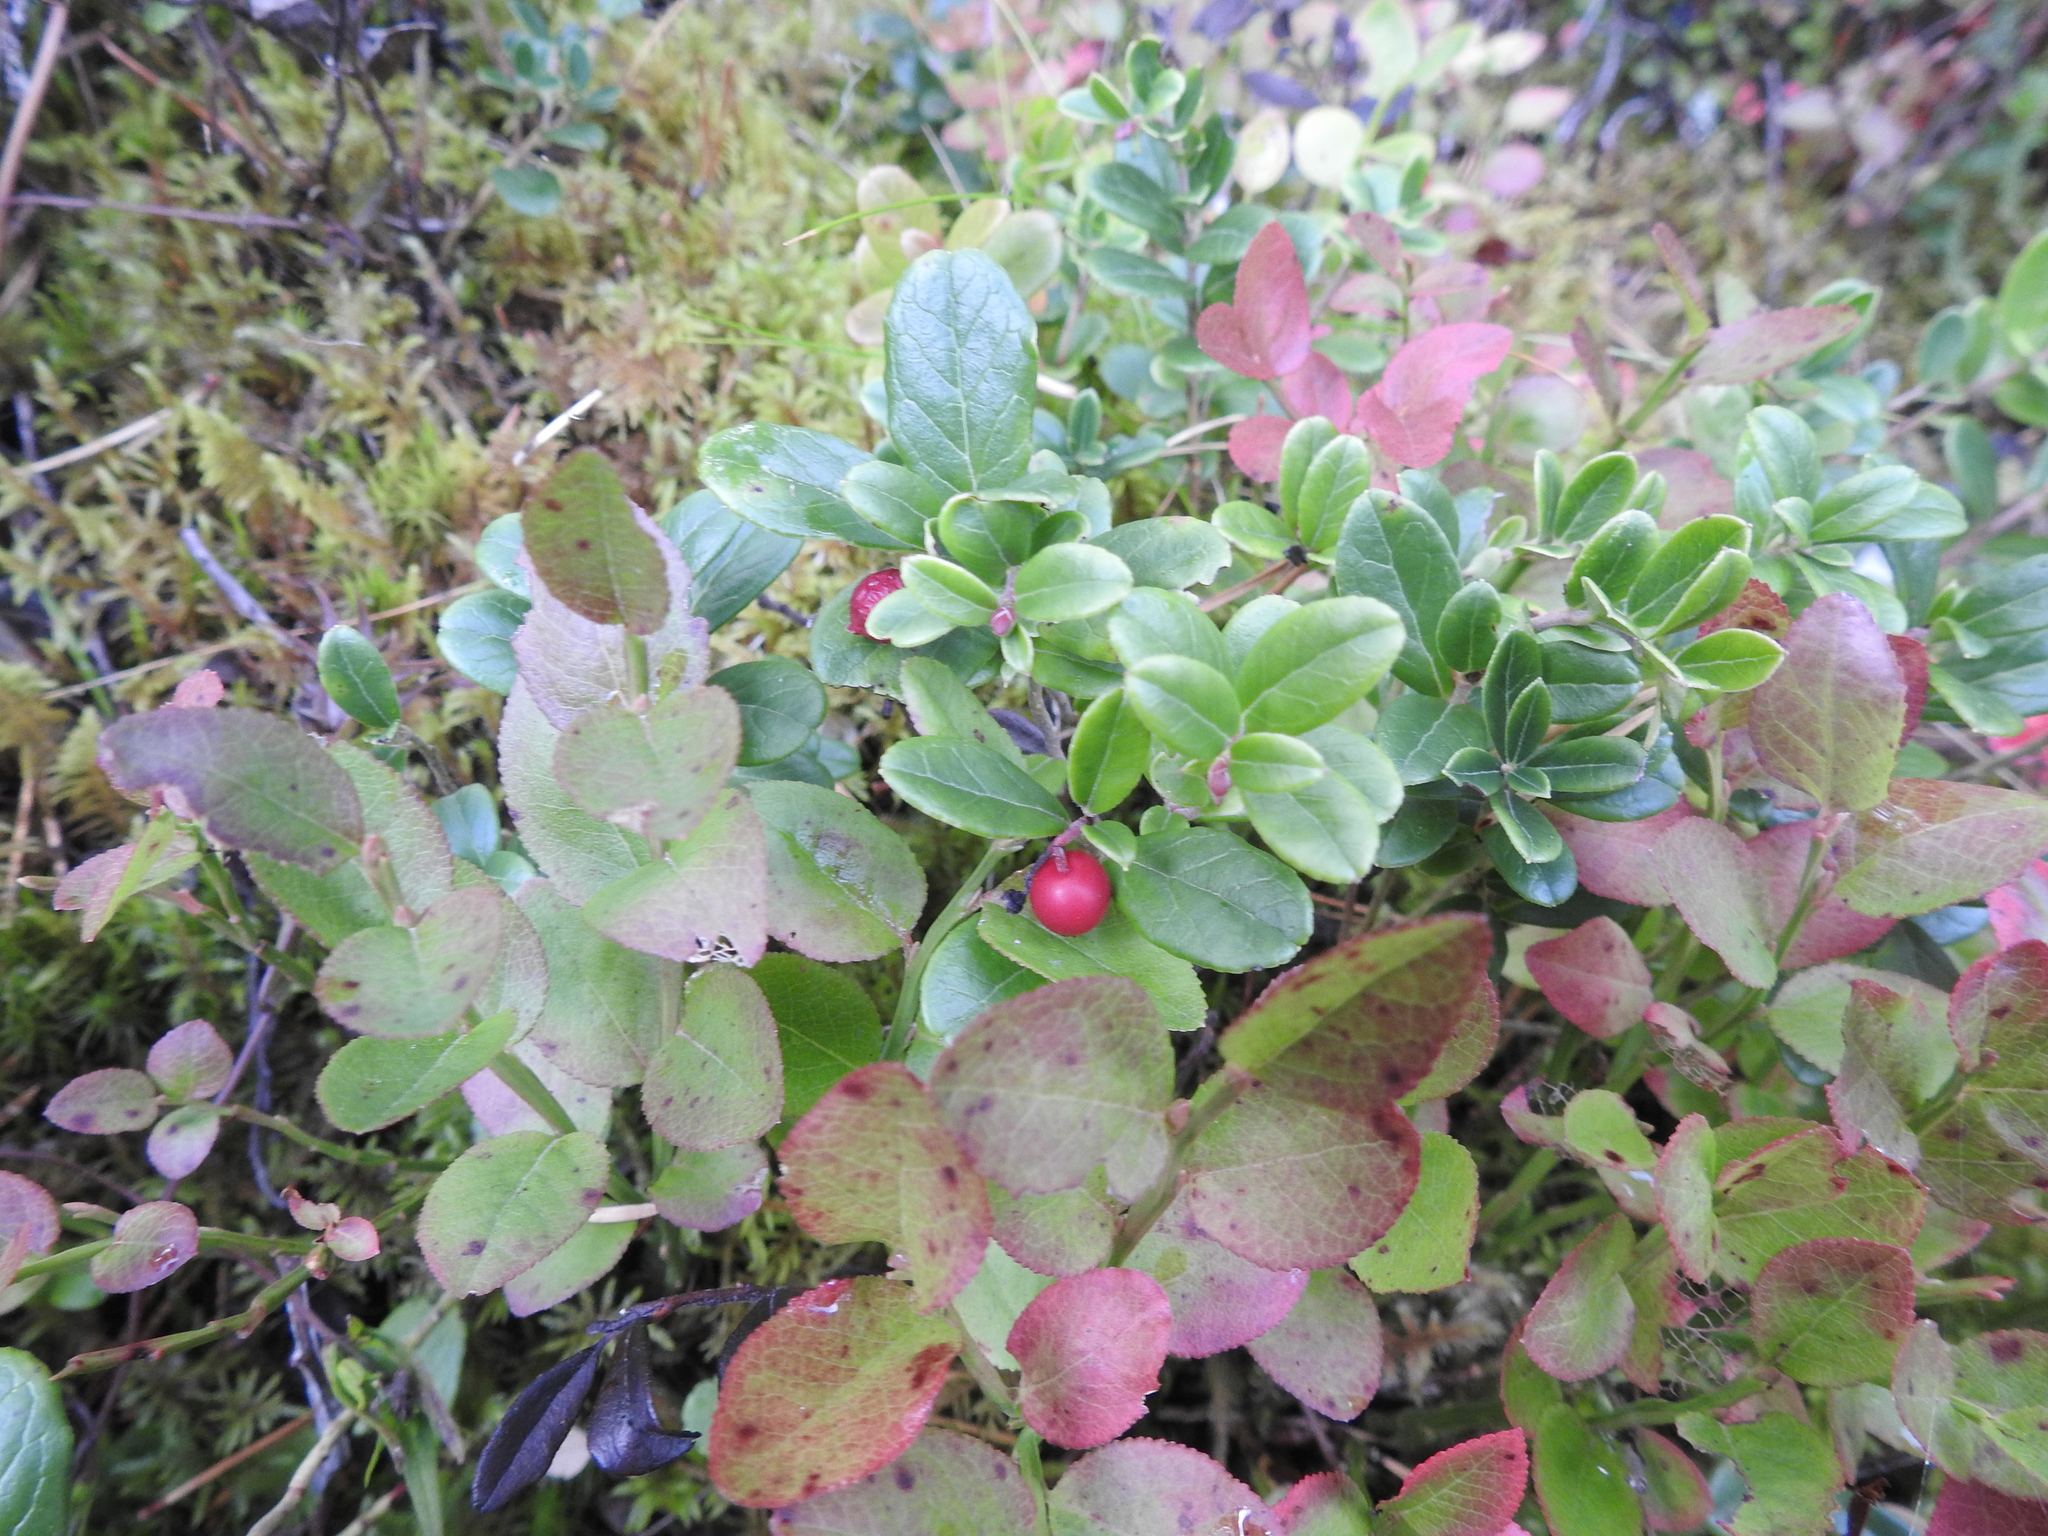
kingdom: Plantae
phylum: Tracheophyta
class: Magnoliopsida
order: Ericales
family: Ericaceae
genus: Vaccinium
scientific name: Vaccinium vitis-idaea
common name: Cowberry
